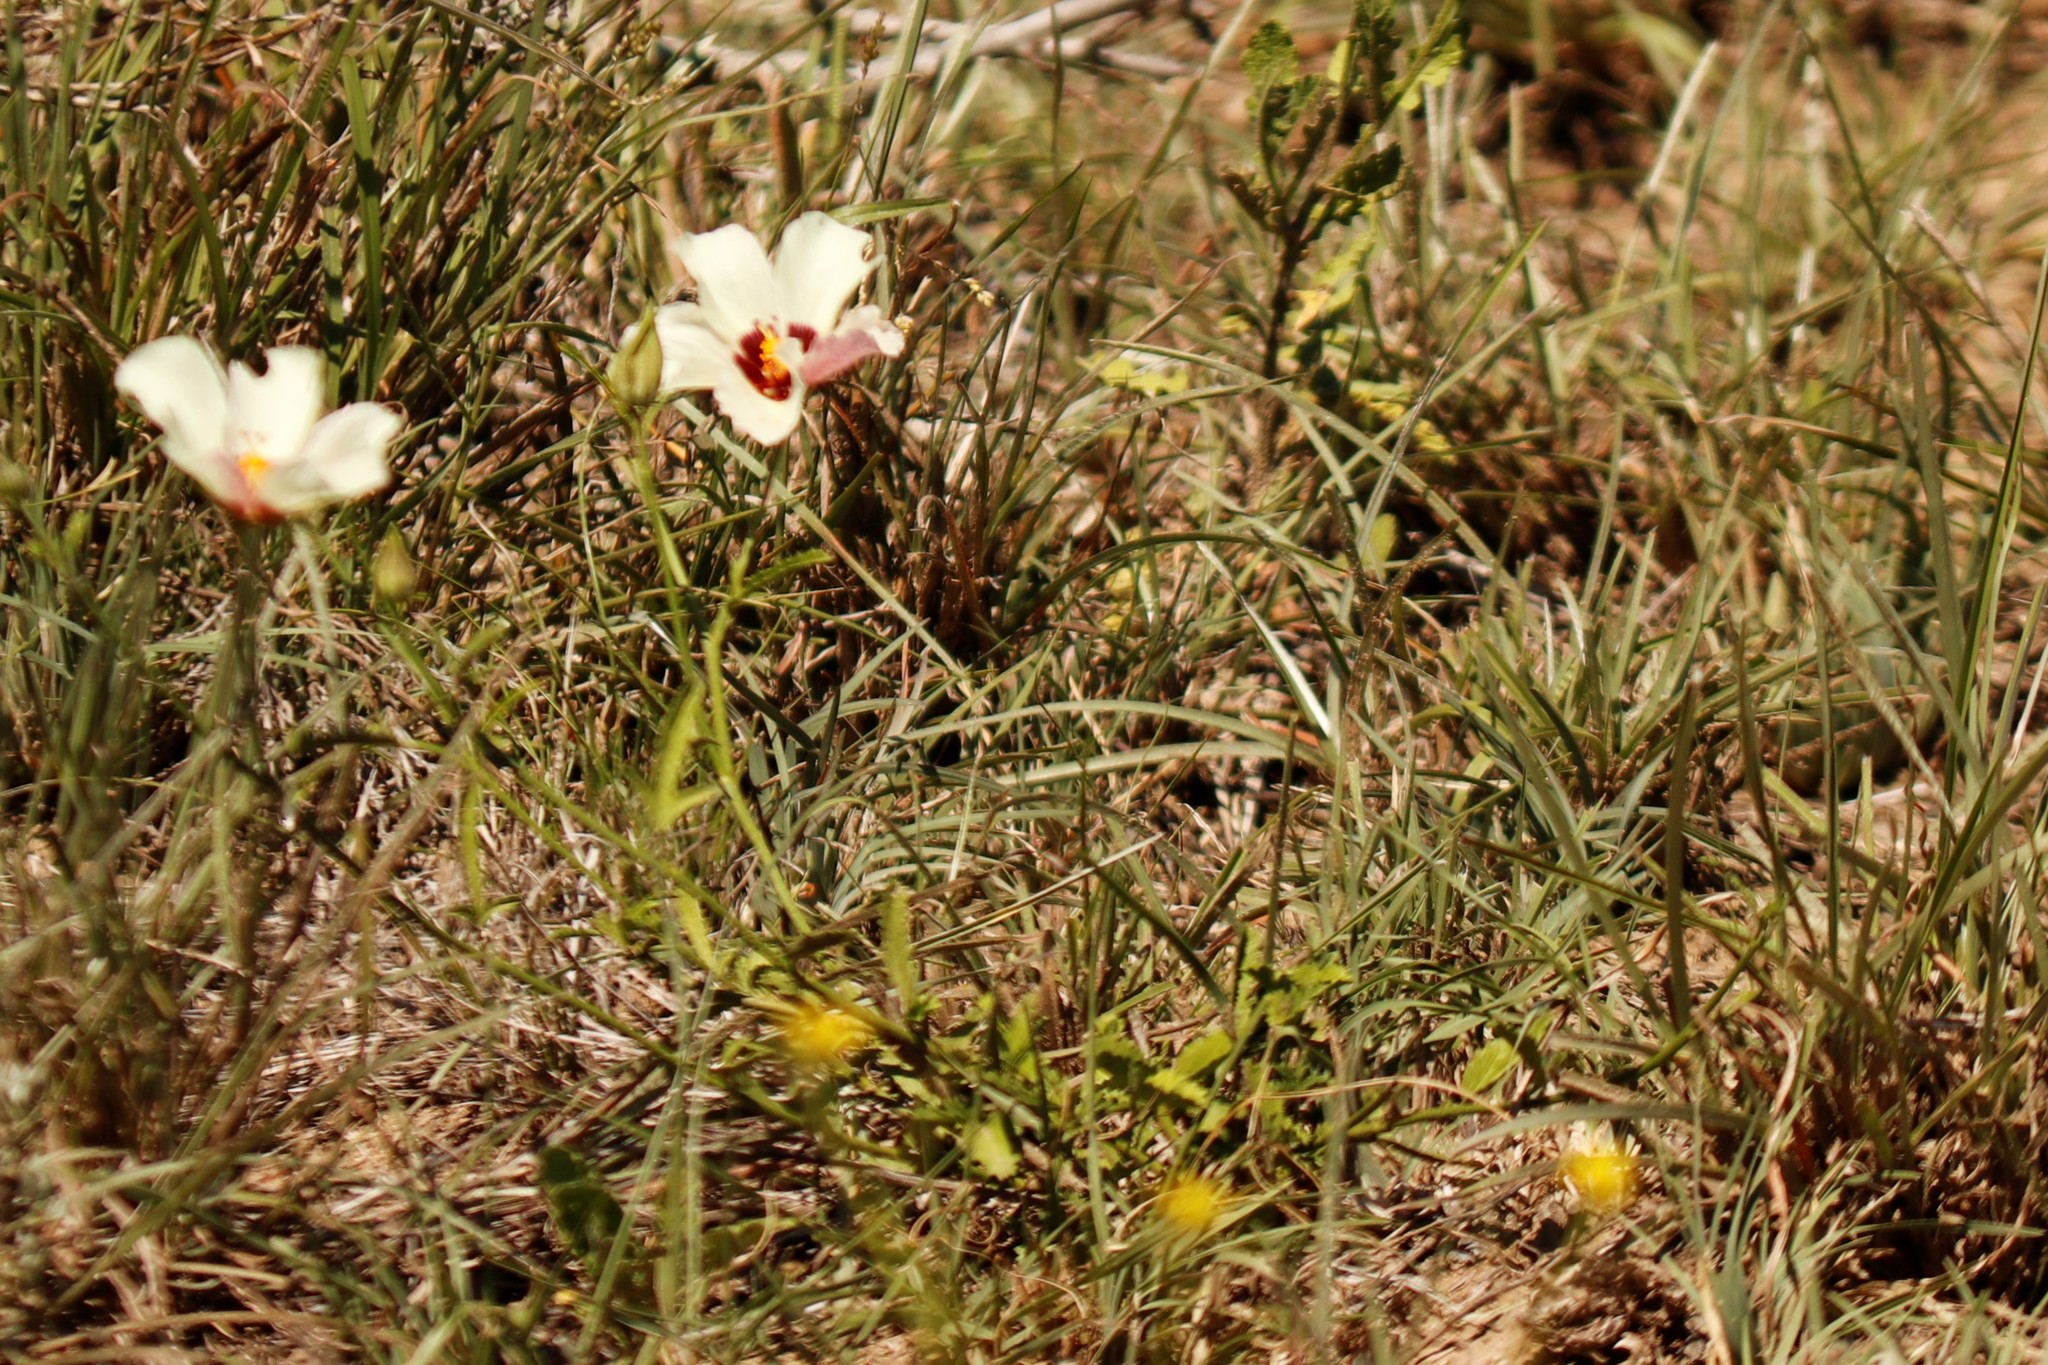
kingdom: Plantae
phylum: Tracheophyta
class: Magnoliopsida
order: Malvales
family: Malvaceae
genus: Hibiscus
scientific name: Hibiscus pusillus
